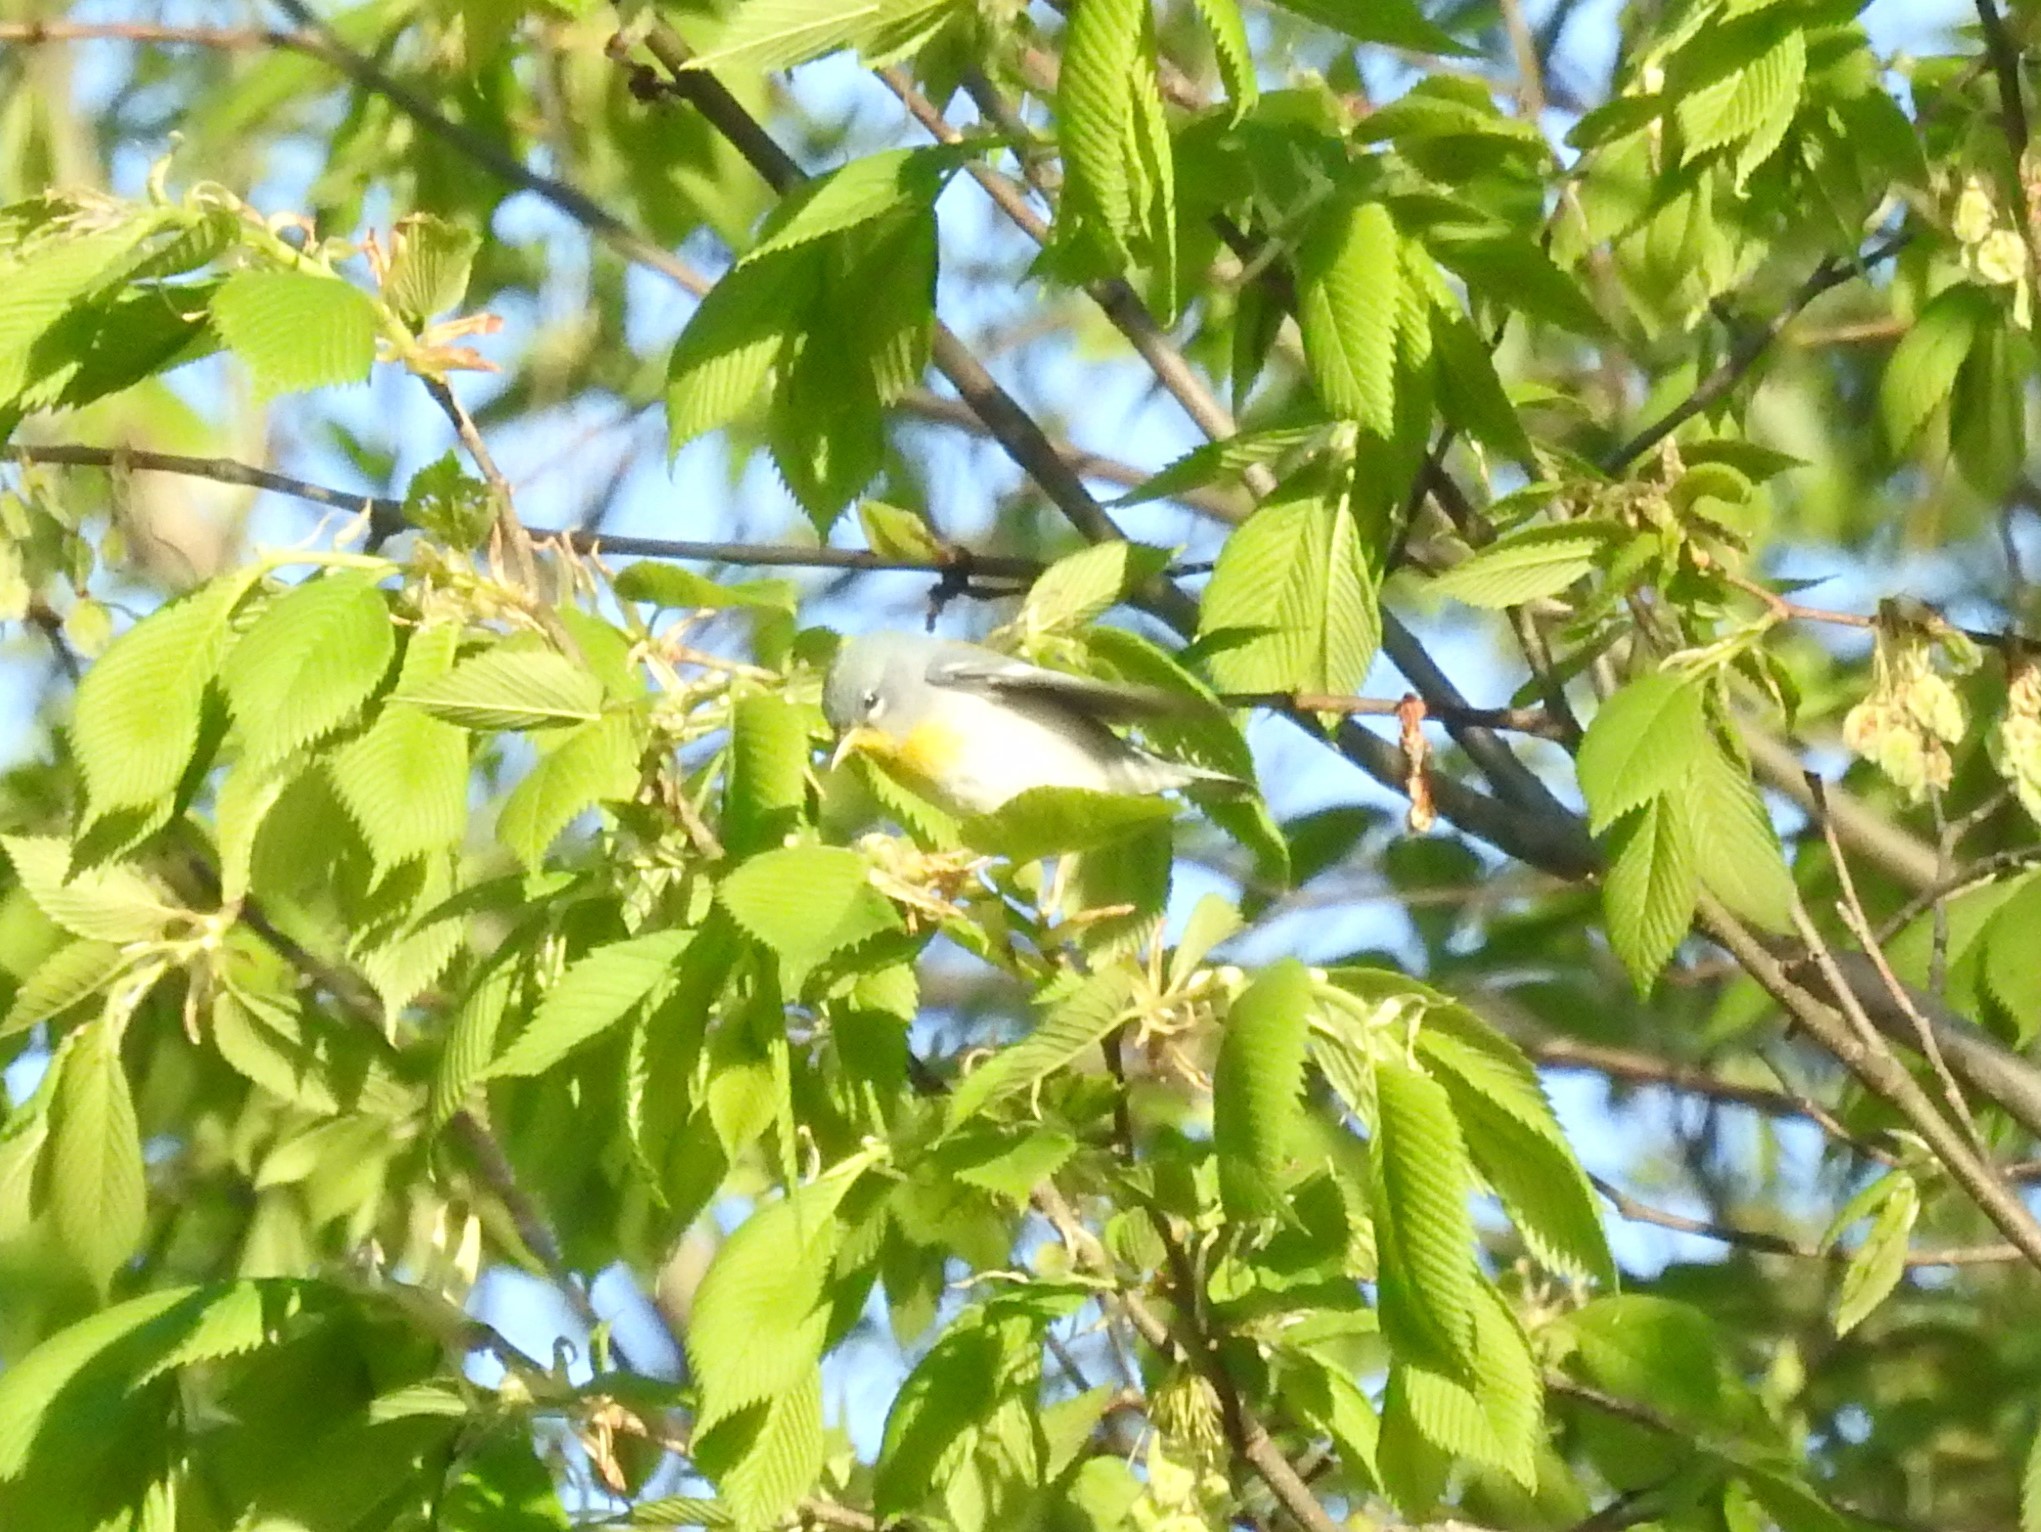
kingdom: Animalia
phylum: Chordata
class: Aves
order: Passeriformes
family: Parulidae
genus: Setophaga
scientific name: Setophaga americana
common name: Northern parula
